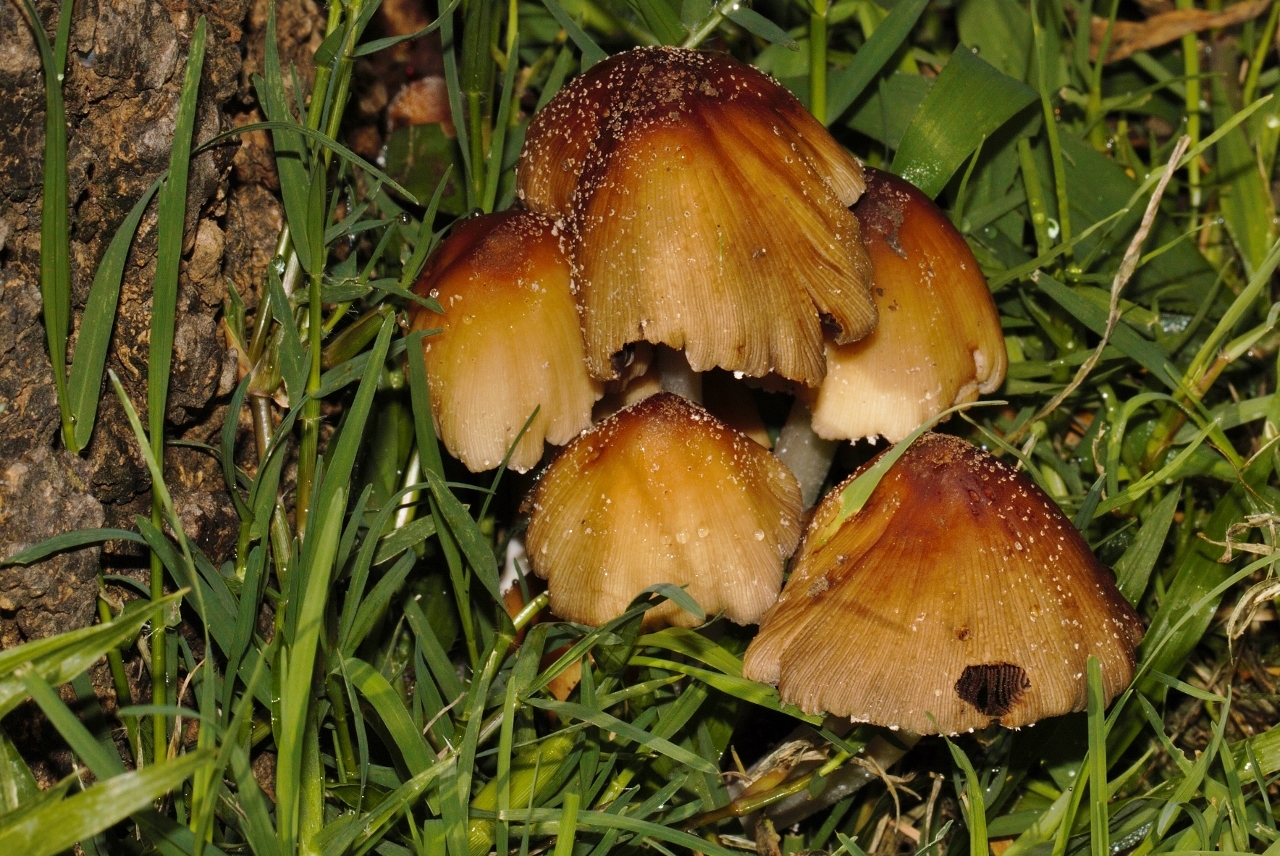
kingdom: Fungi
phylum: Basidiomycota
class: Agaricomycetes
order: Agaricales
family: Psathyrellaceae
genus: Coprinellus
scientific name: Coprinellus micaceus
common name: Glistening ink-cap
